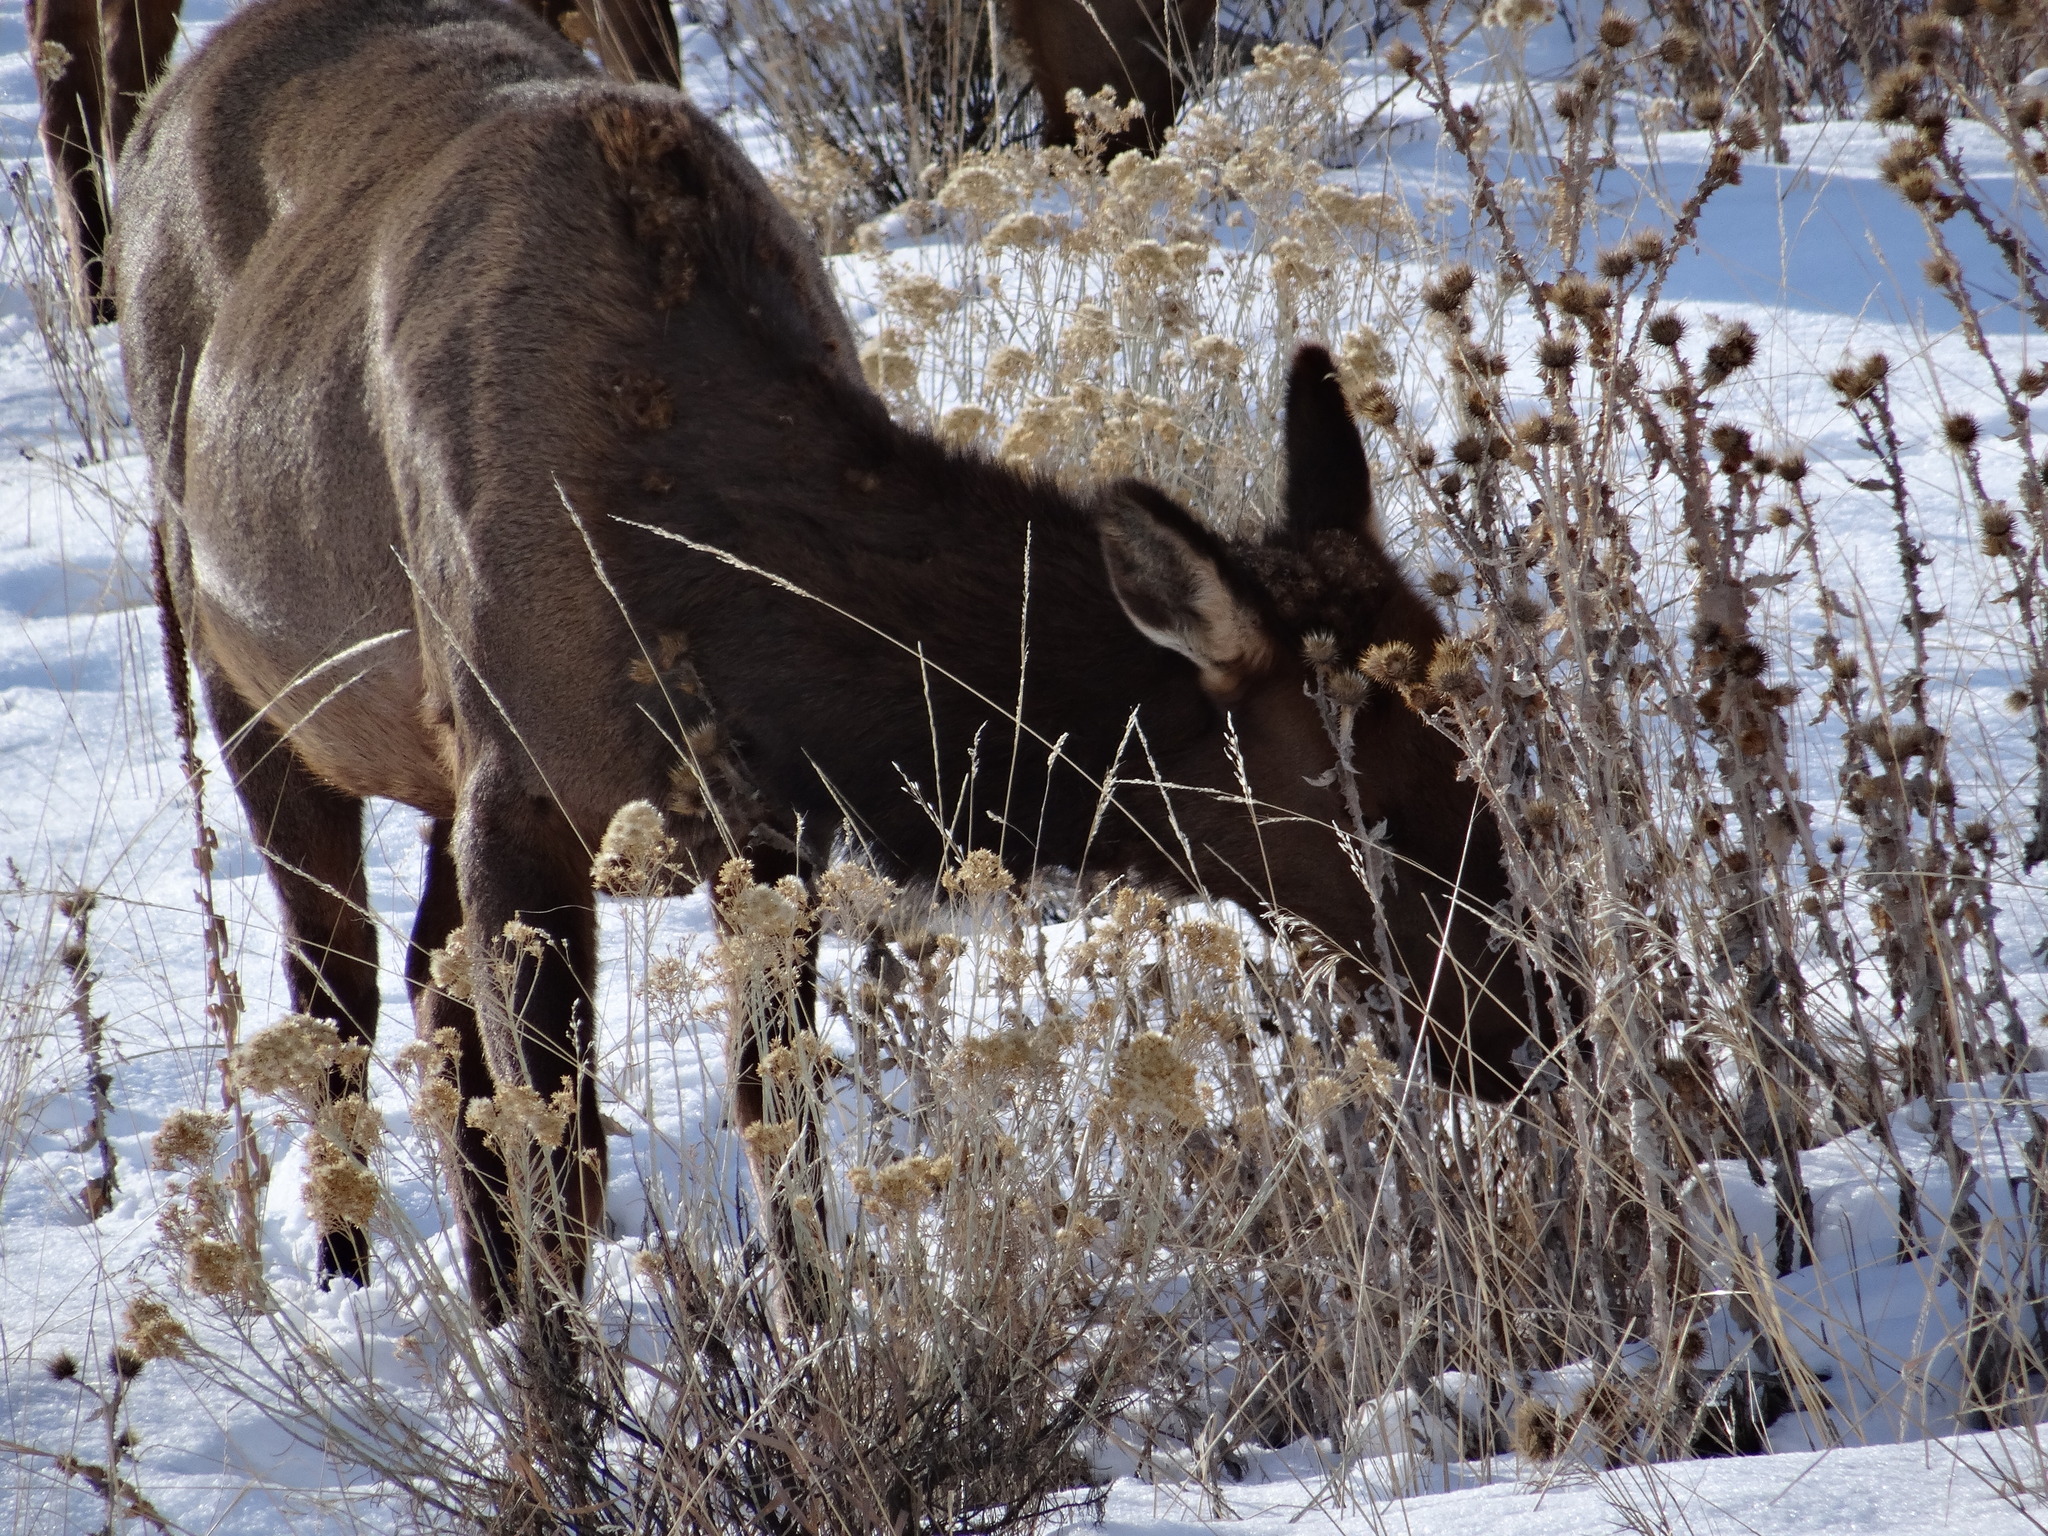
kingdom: Plantae
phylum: Tracheophyta
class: Magnoliopsida
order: Asterales
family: Asteraceae
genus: Ericameria
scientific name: Ericameria nauseosa
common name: Rubber rabbitbrush
